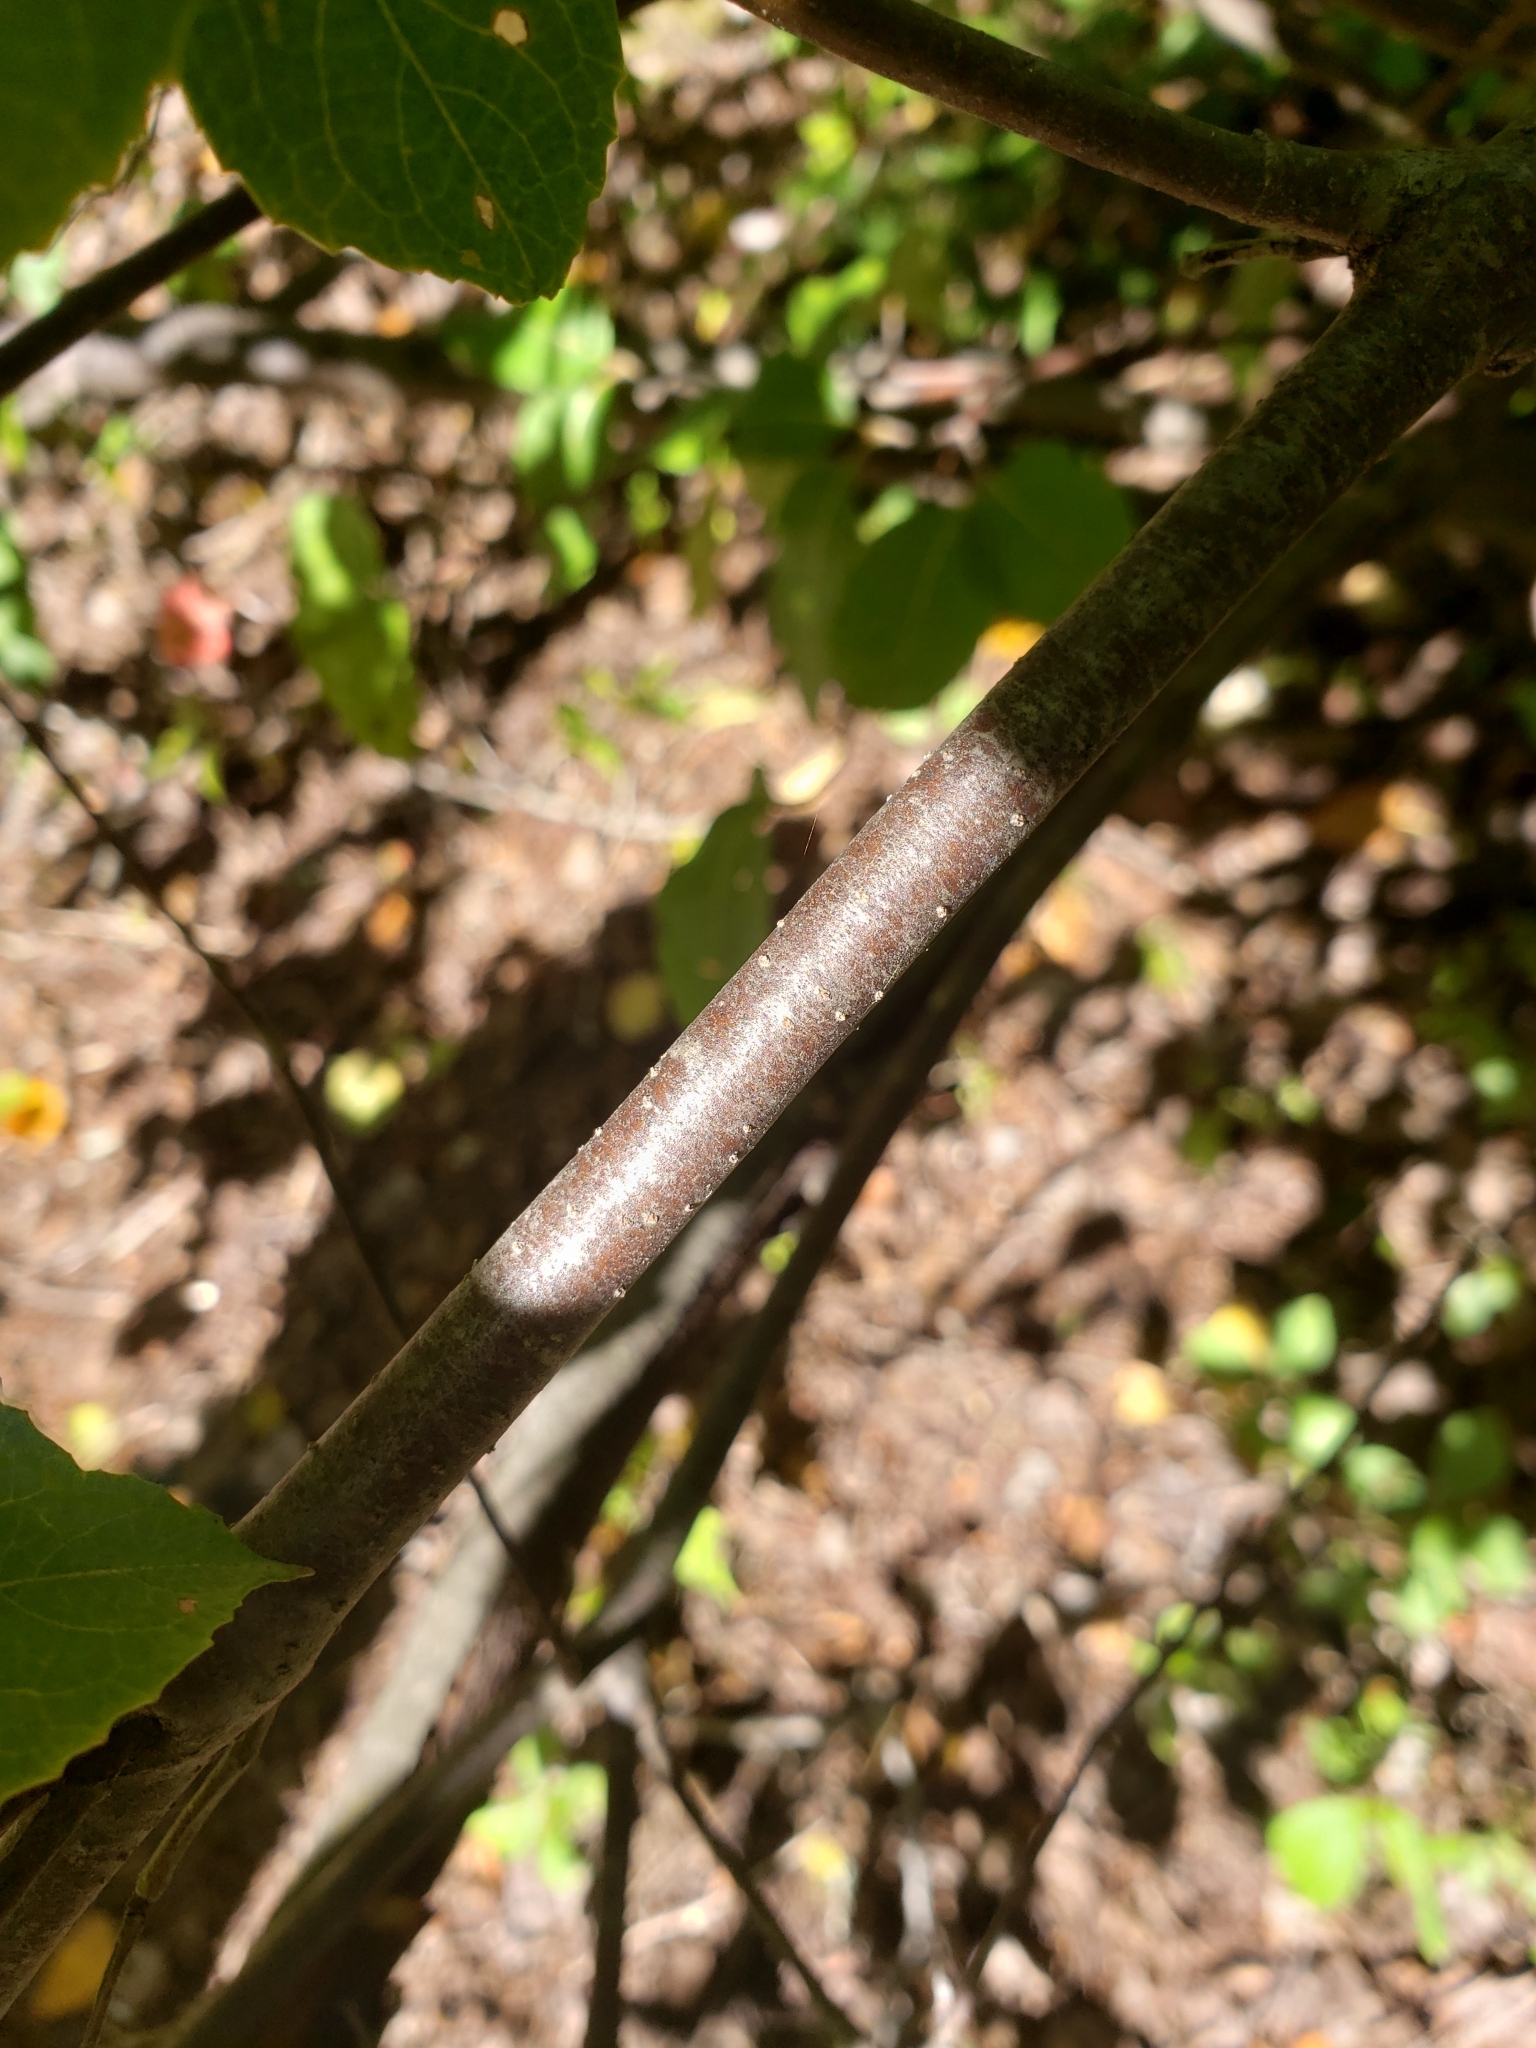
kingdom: Plantae
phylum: Tracheophyta
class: Magnoliopsida
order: Dipsacales
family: Viburnaceae
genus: Viburnum
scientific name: Viburnum cassinoides
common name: Swamp haw
